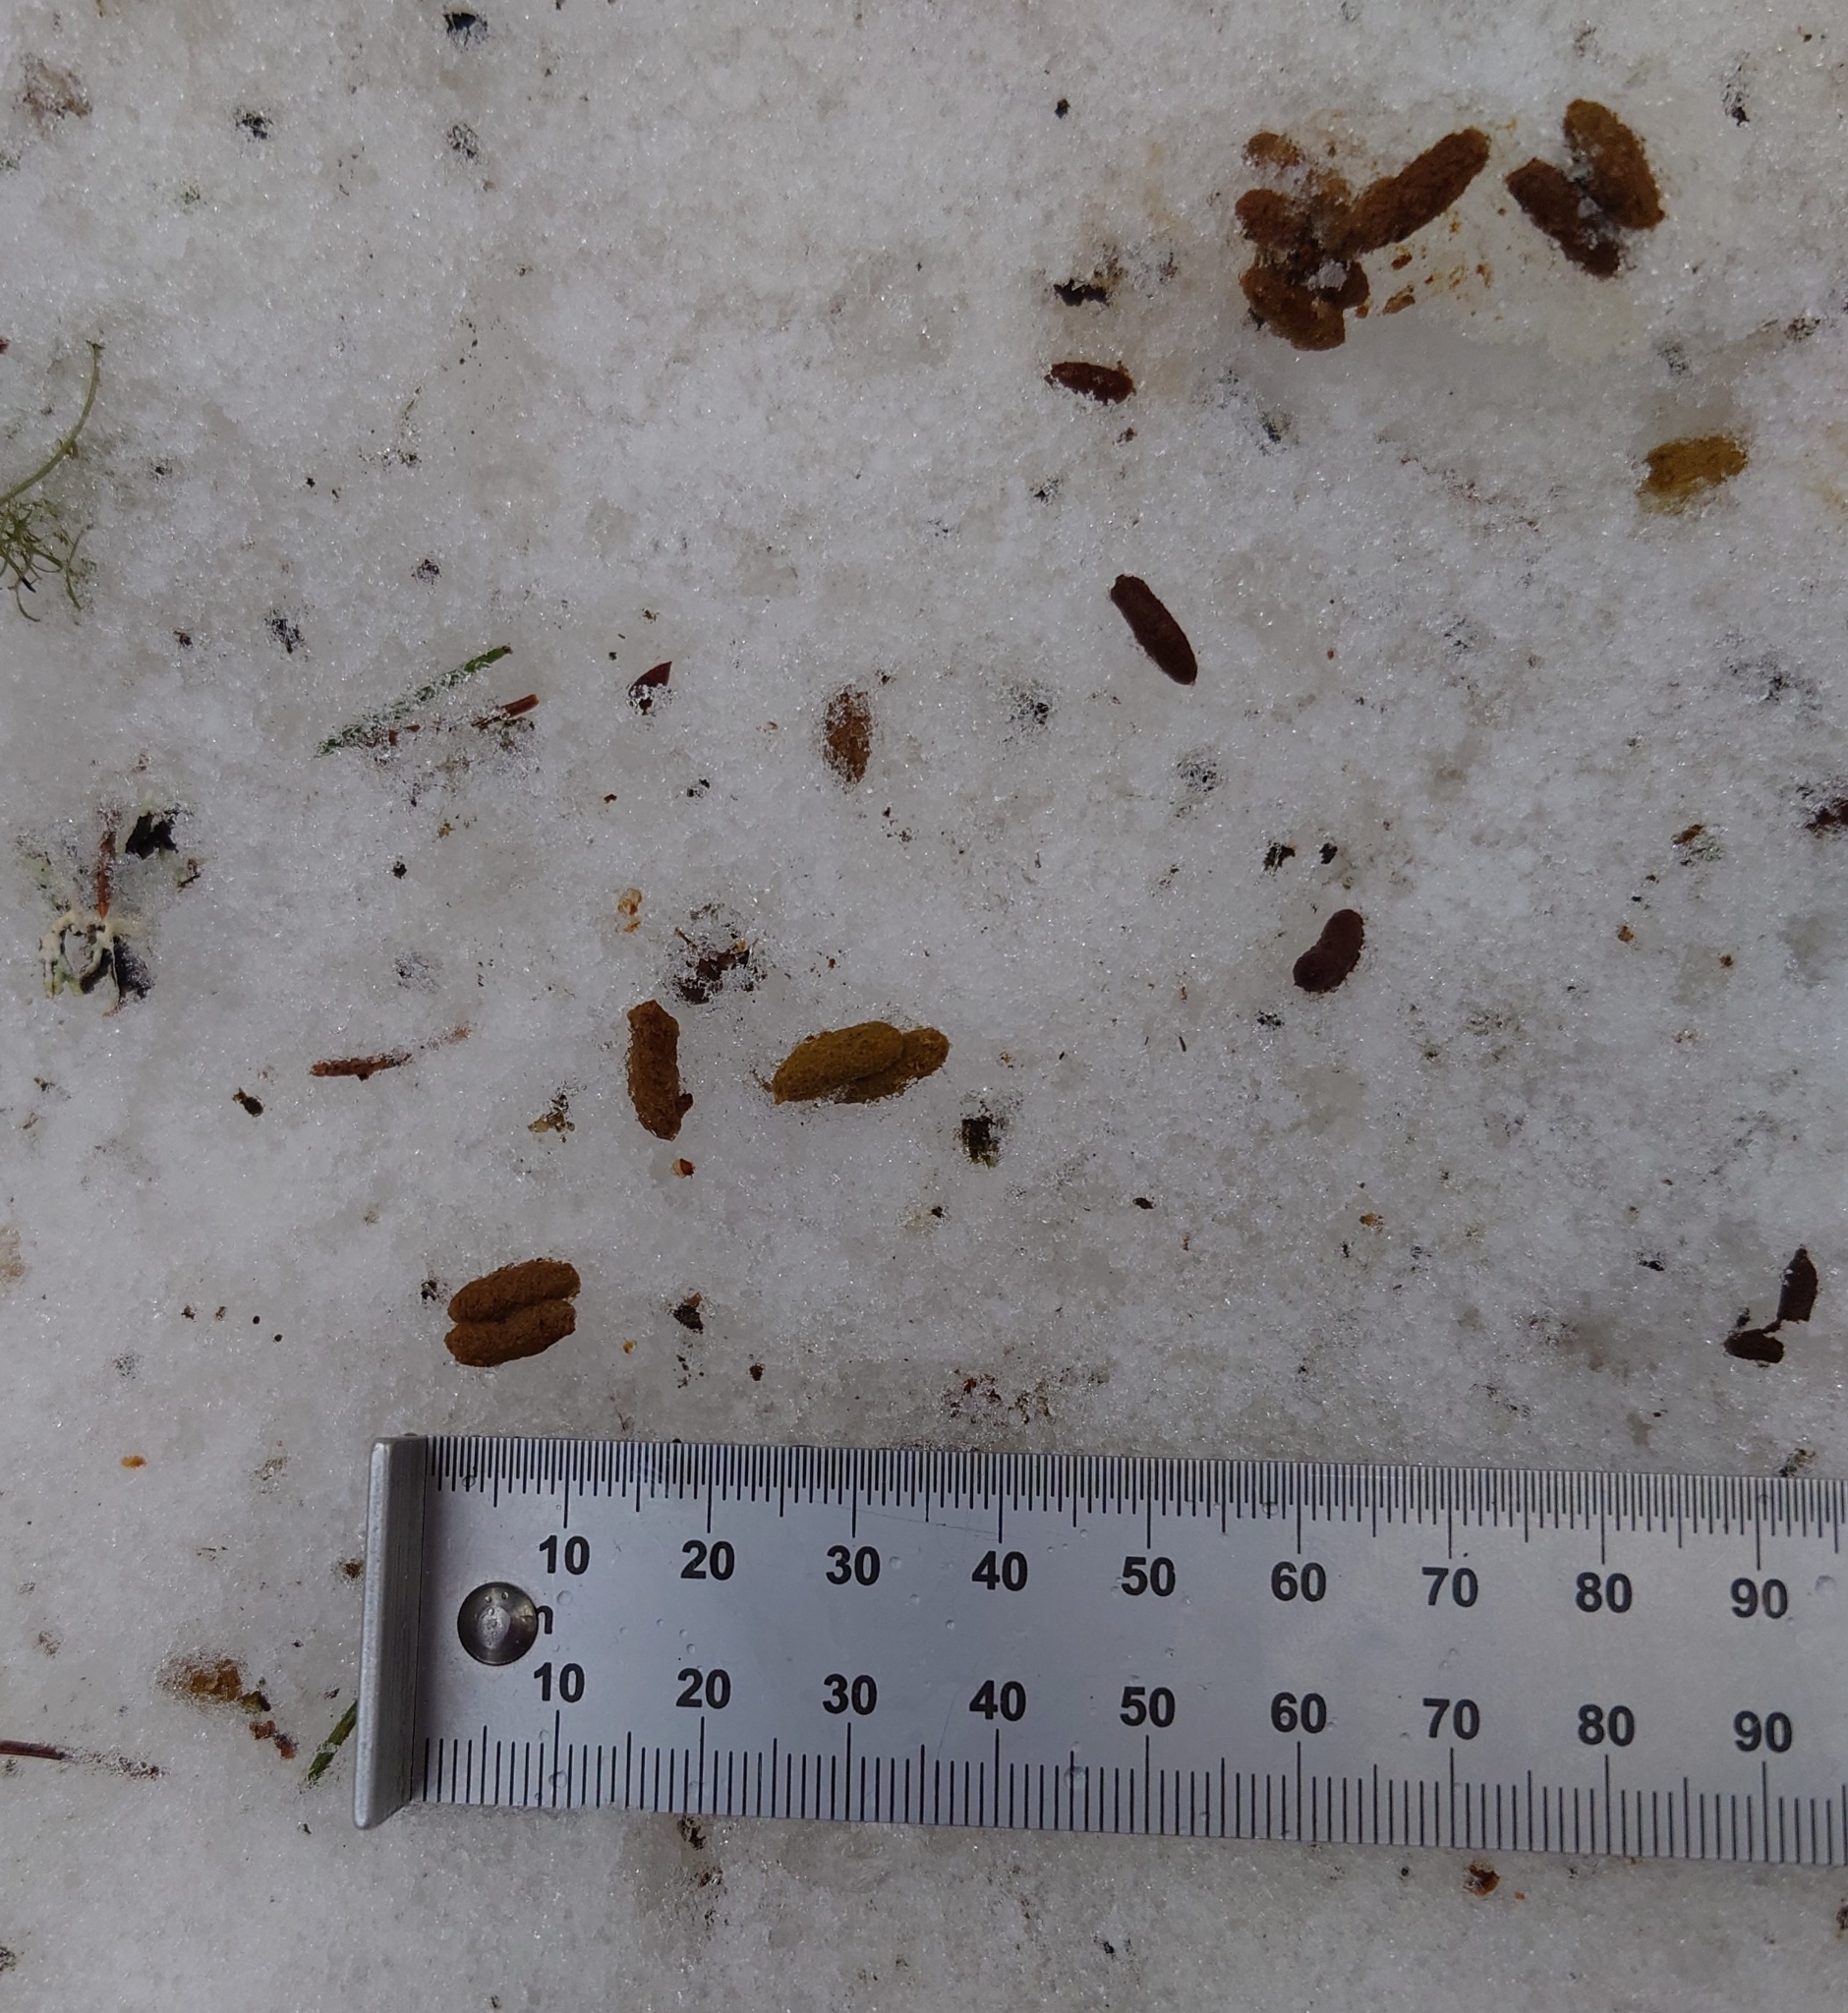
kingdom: Animalia
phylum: Chordata
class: Mammalia
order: Rodentia
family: Sciuridae
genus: Pteromys
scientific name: Pteromys volans
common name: Siberian flying squirrel
